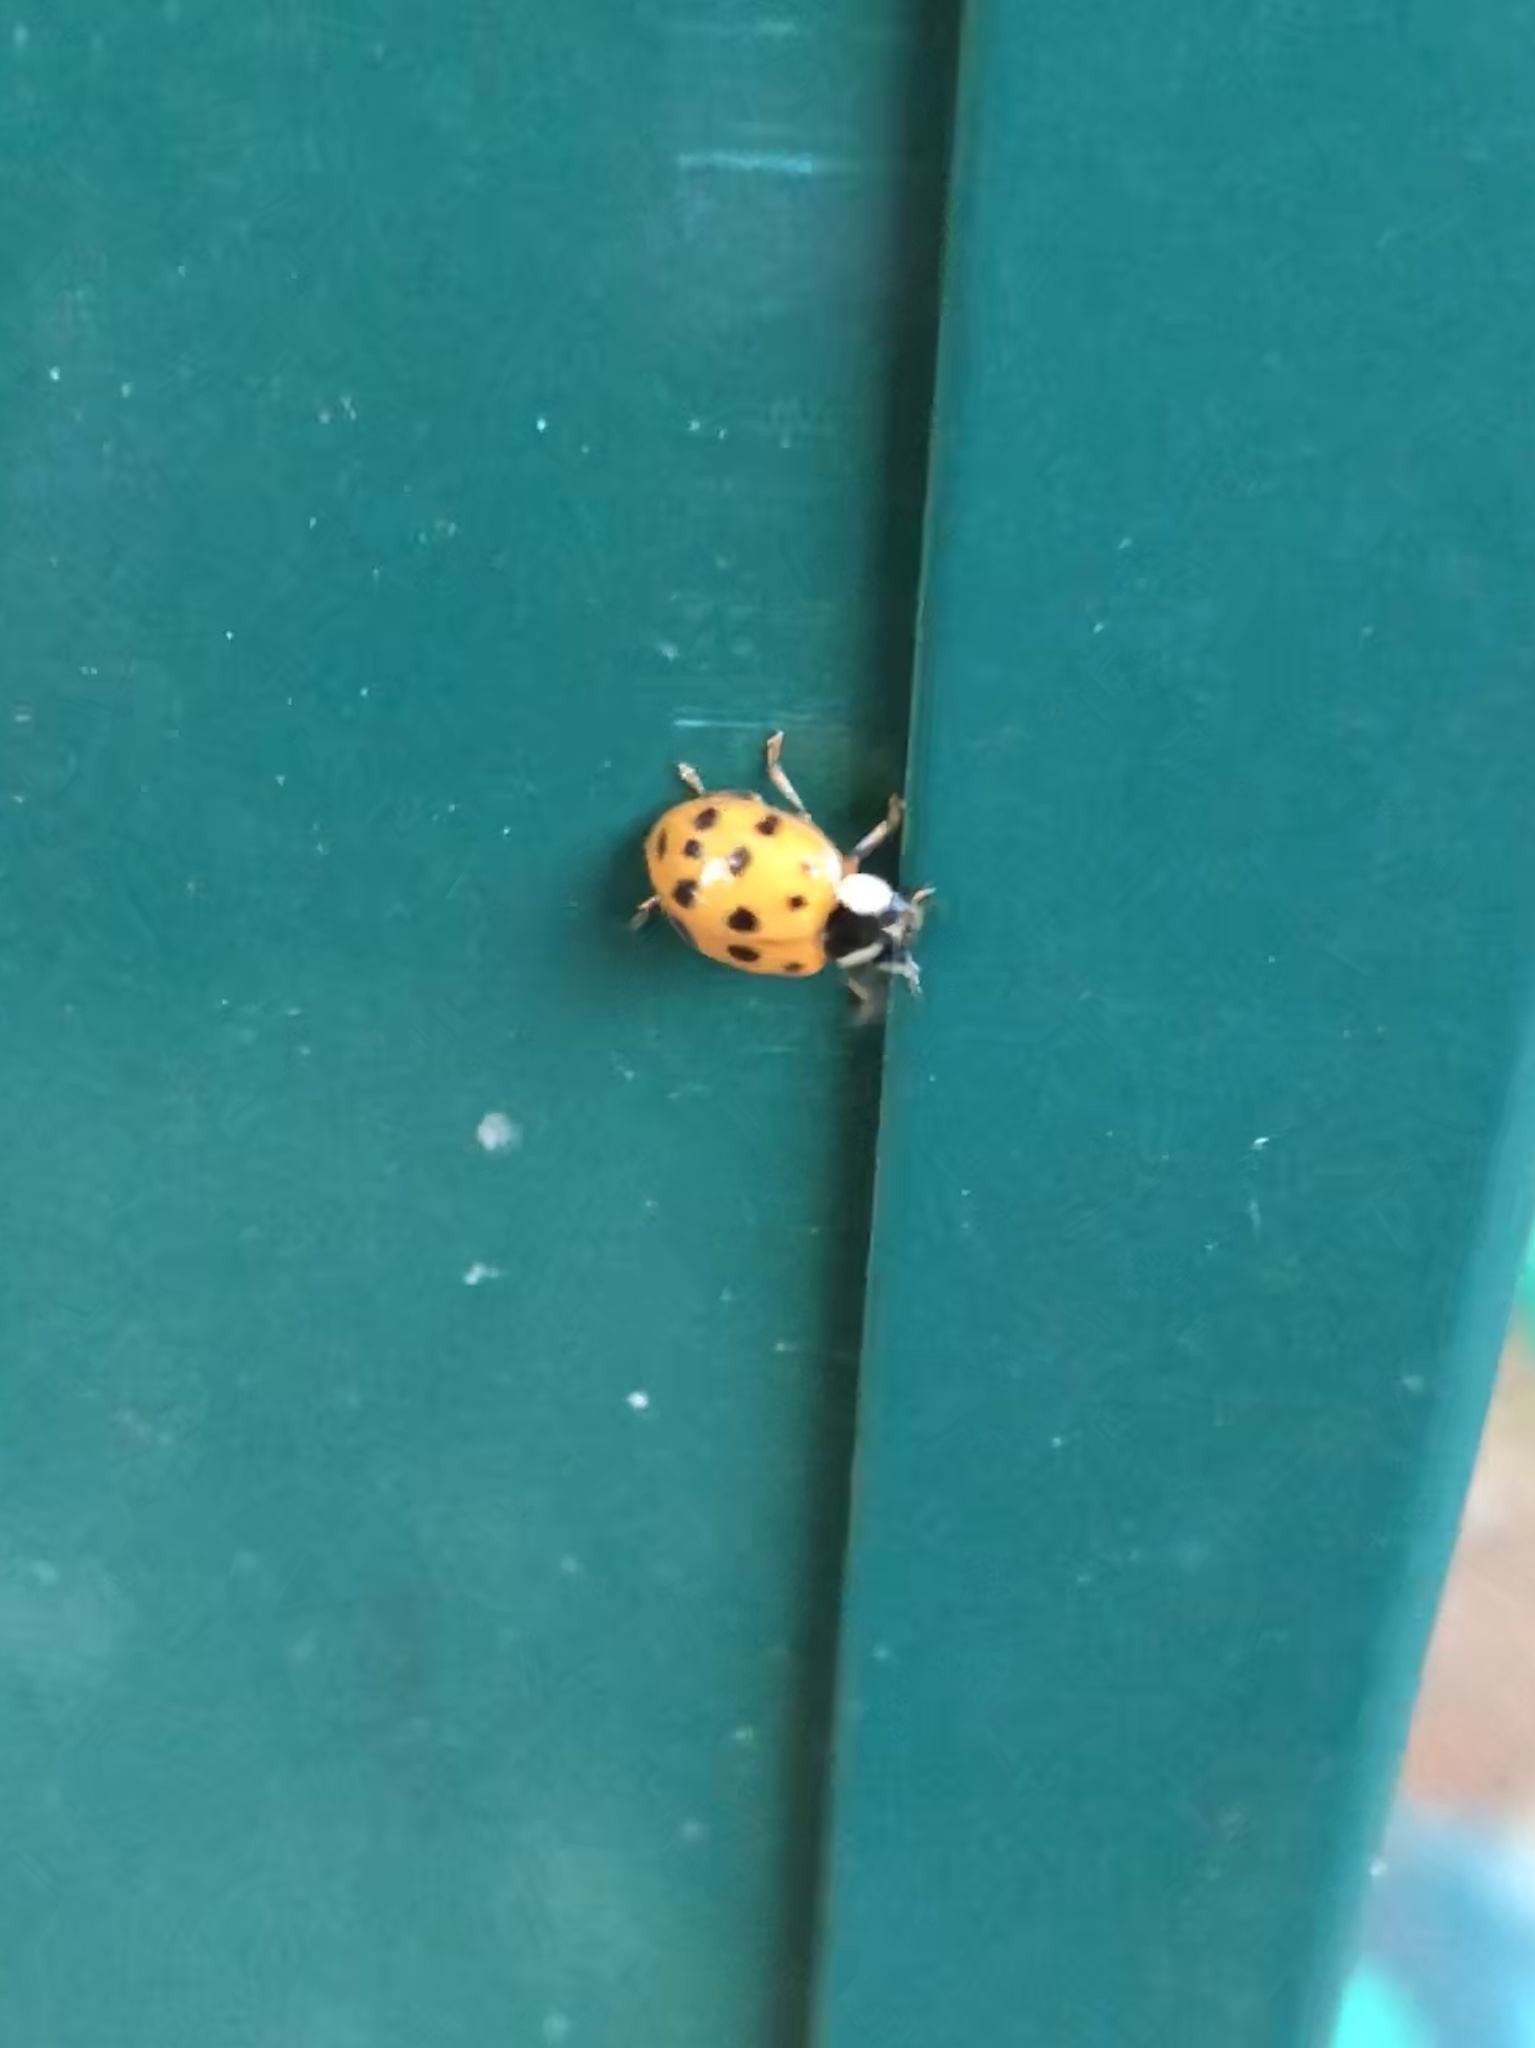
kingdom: Animalia
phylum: Arthropoda
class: Insecta
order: Coleoptera
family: Coccinellidae
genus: Harmonia
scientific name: Harmonia axyridis
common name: Harlequin ladybird
